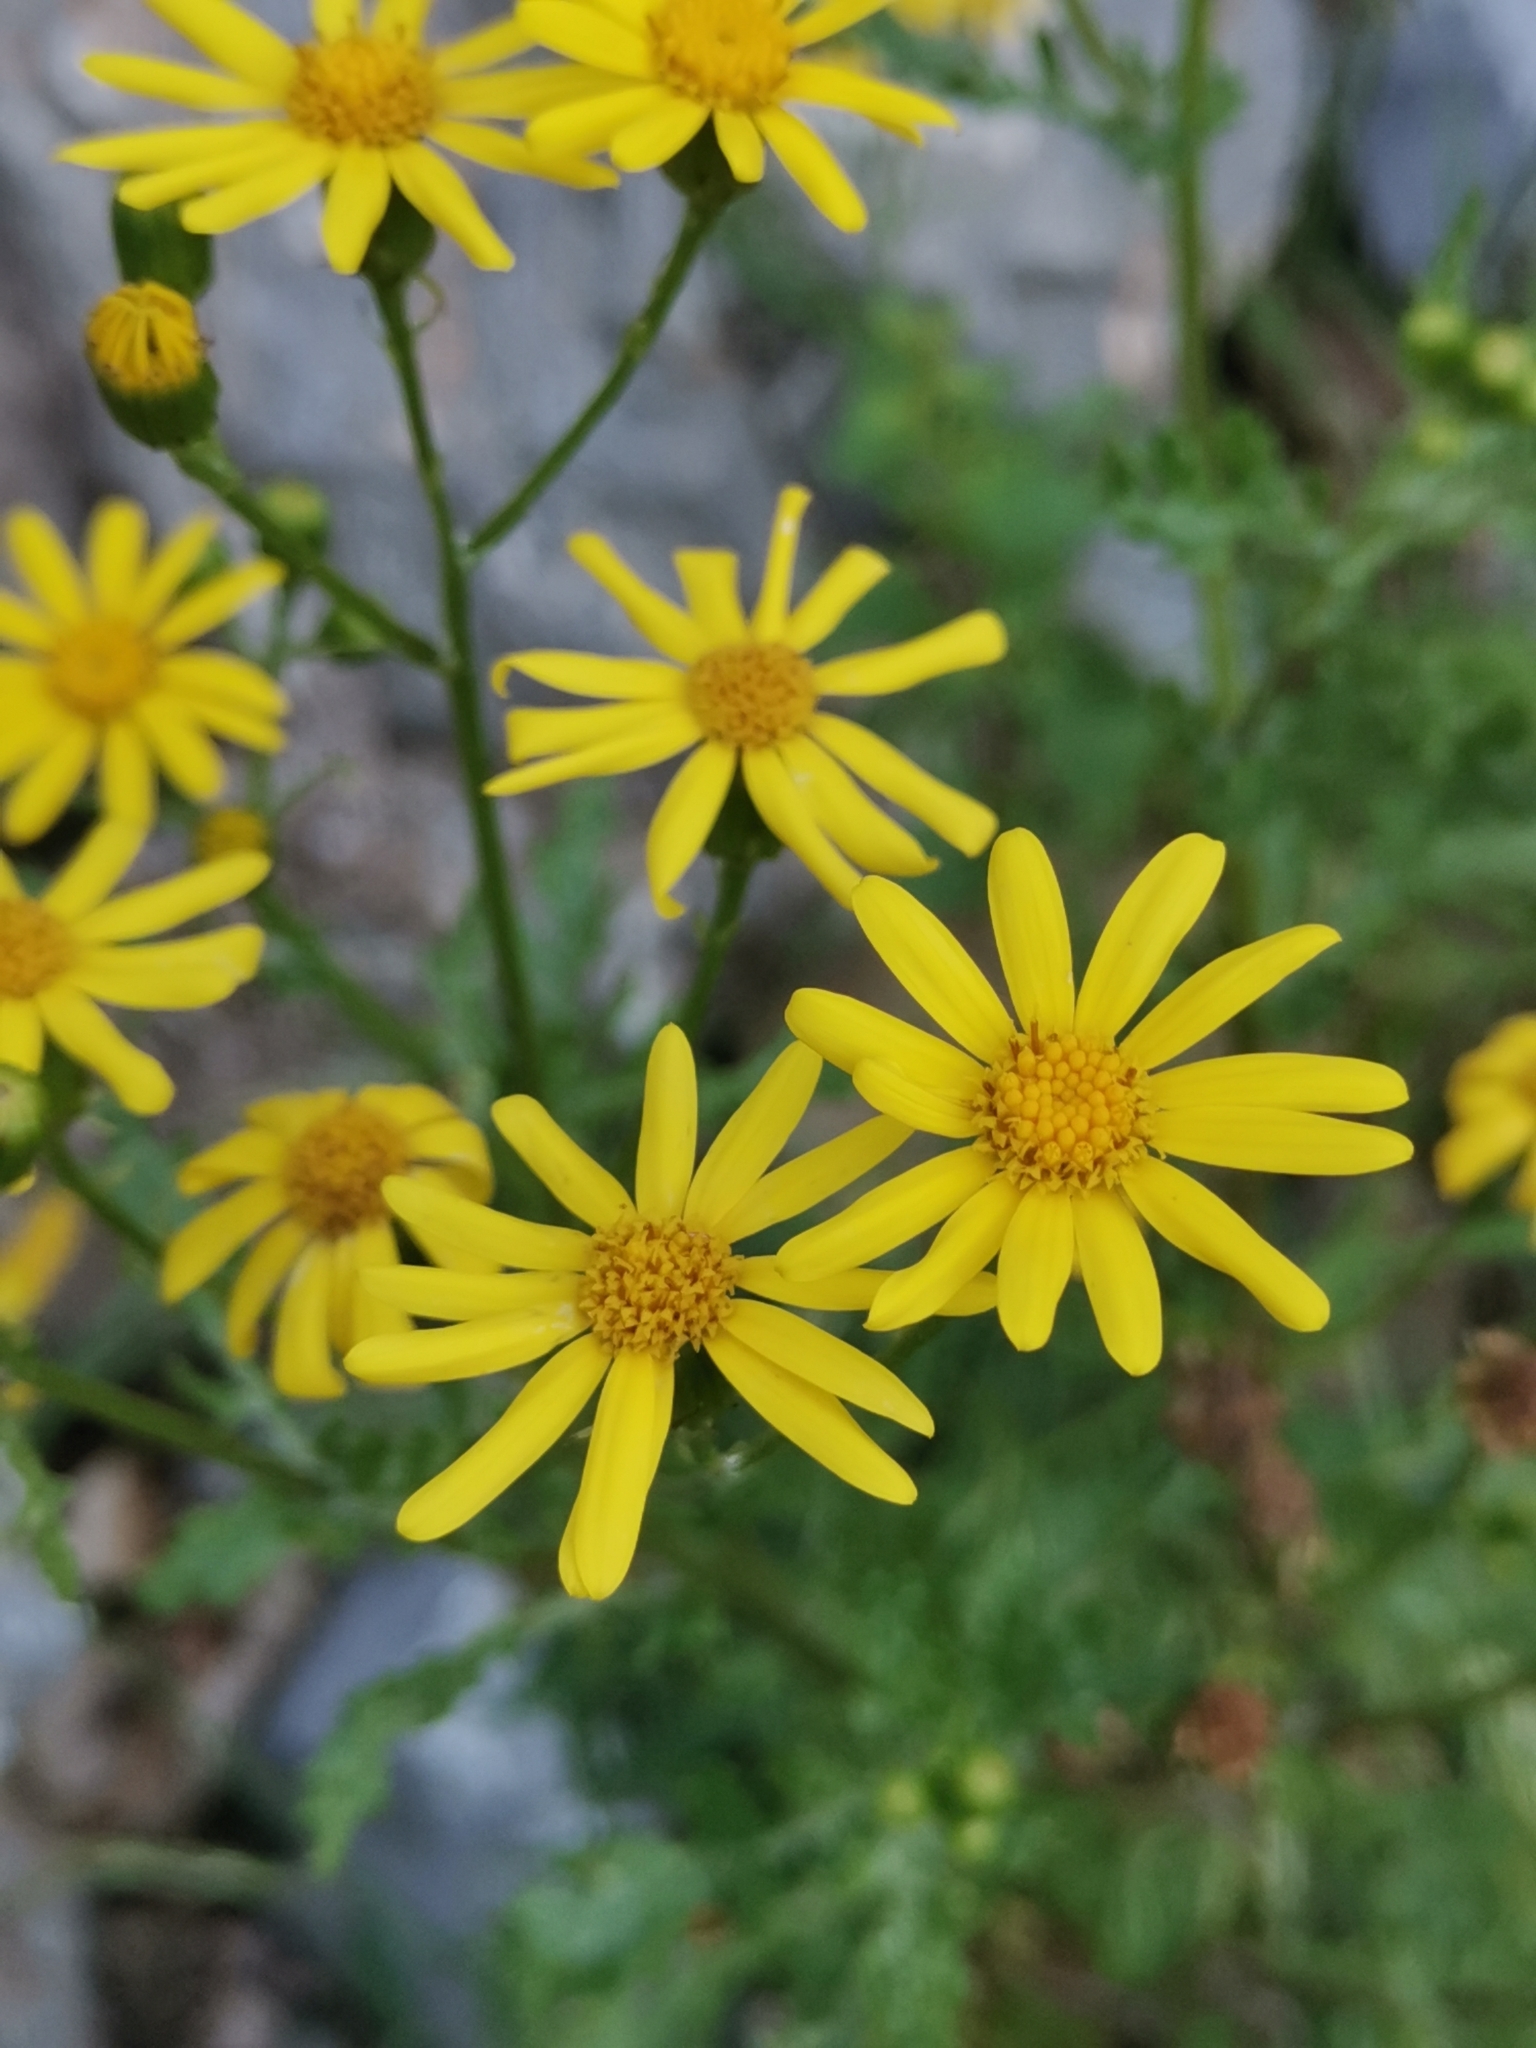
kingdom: Plantae
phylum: Tracheophyta
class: Magnoliopsida
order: Asterales
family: Asteraceae
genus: Senecio
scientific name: Senecio rupestris
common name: Rock ragwort
